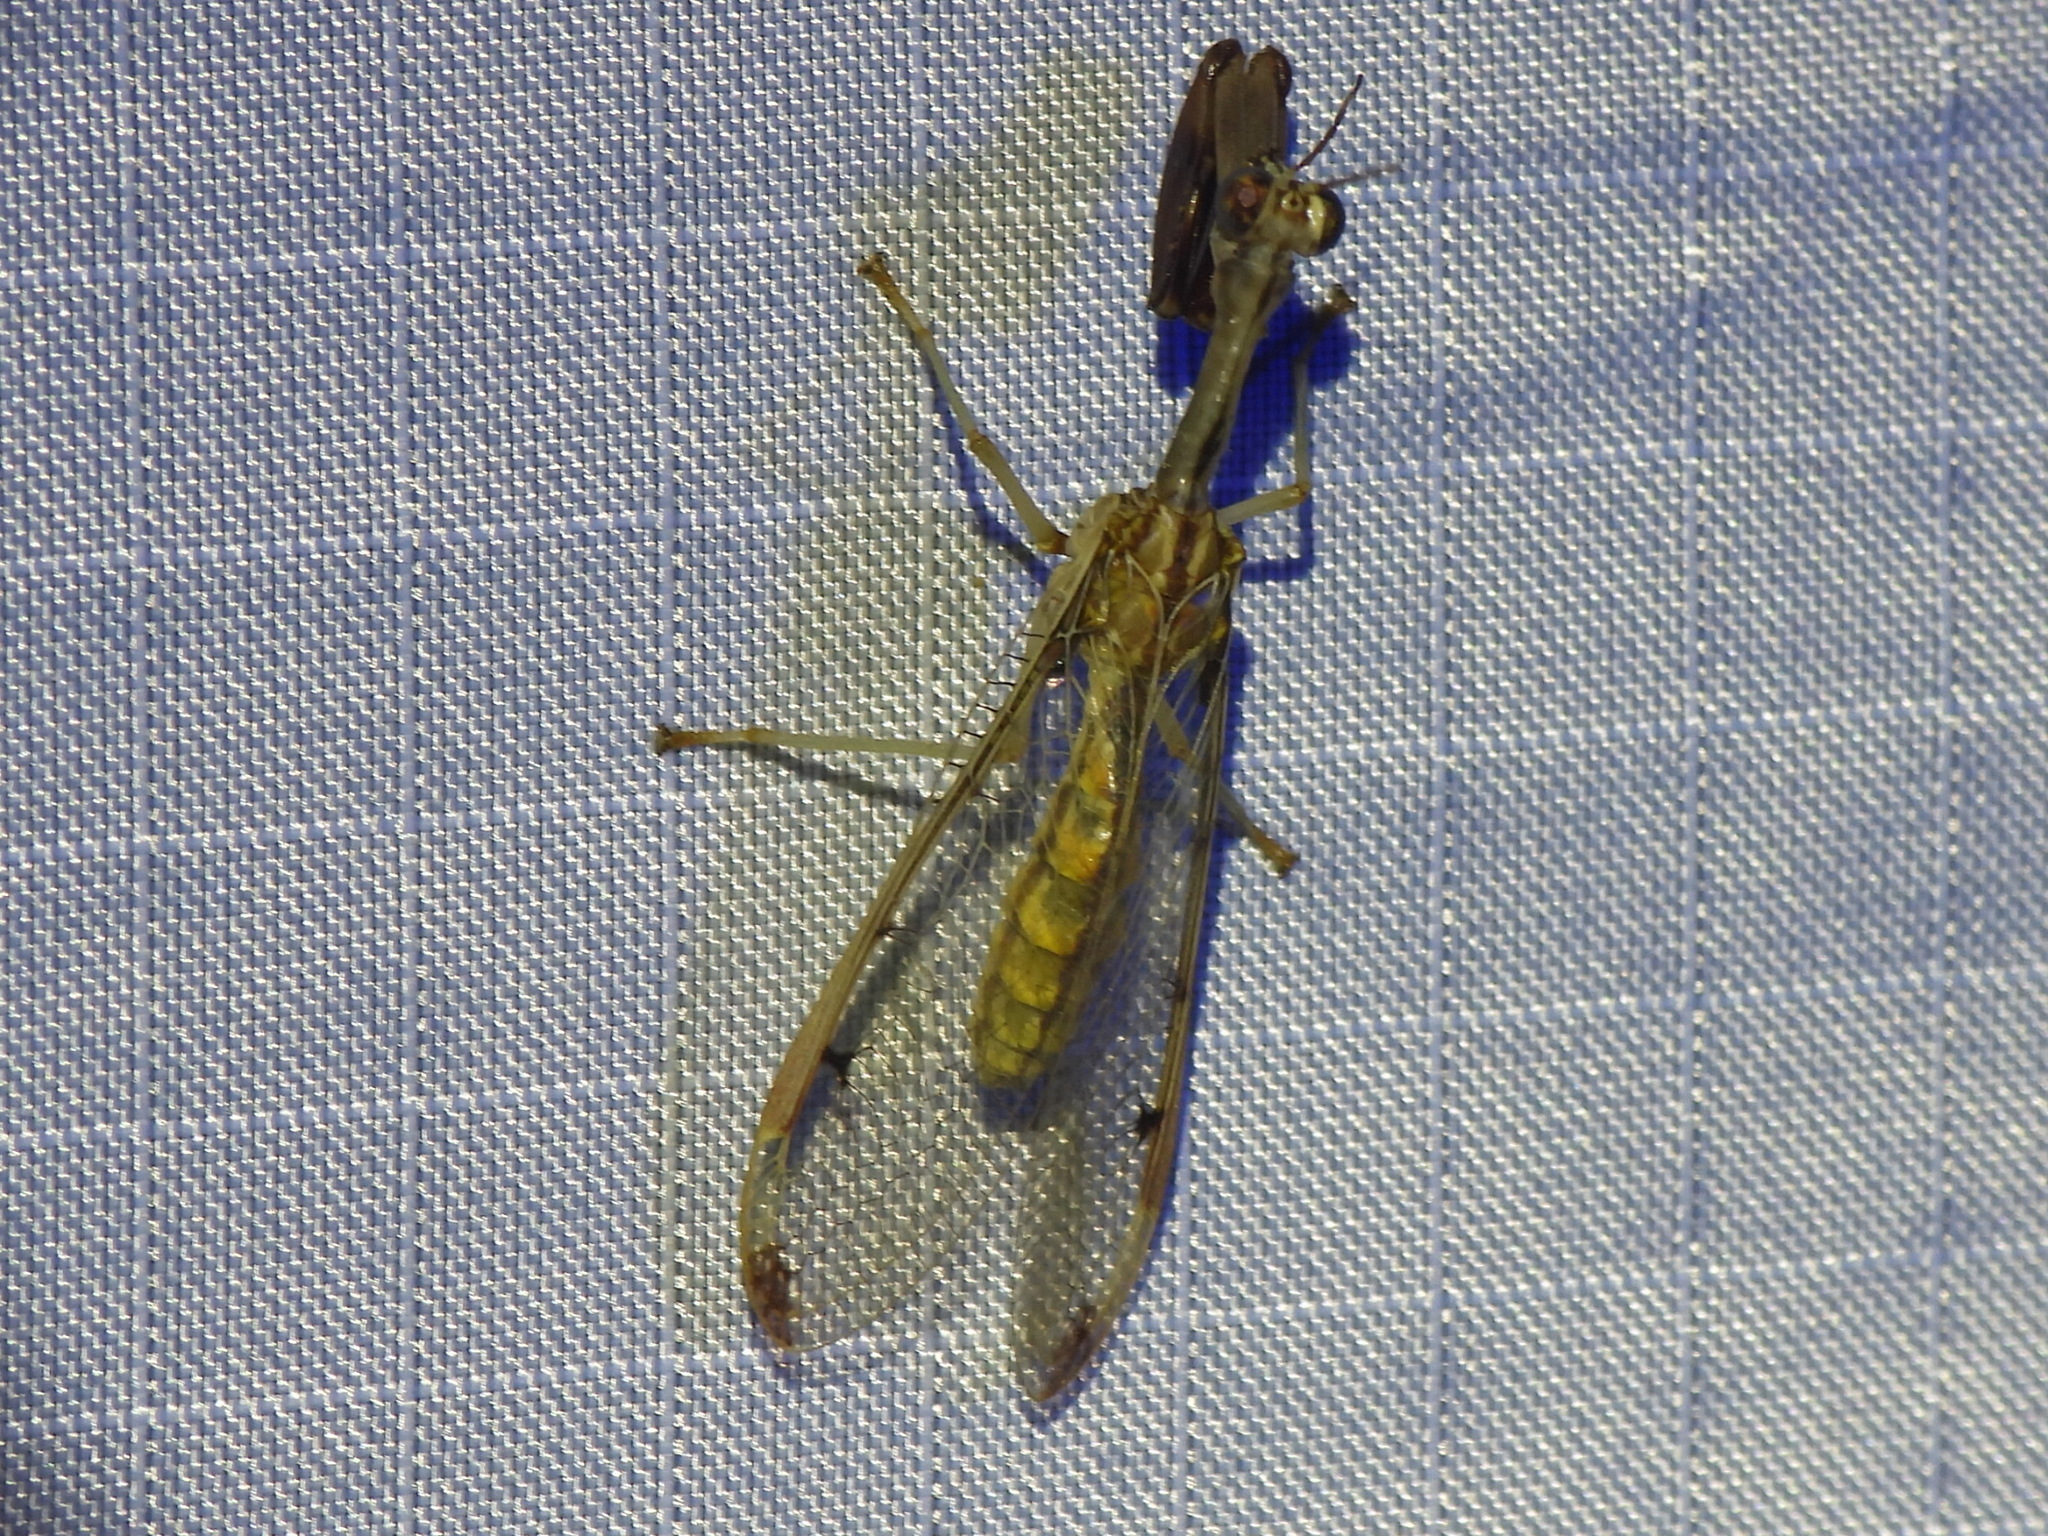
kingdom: Animalia
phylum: Arthropoda
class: Insecta
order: Neuroptera
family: Mantispidae
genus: Dicromantispa
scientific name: Dicromantispa interrupta
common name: Four-spotted mantidfly
